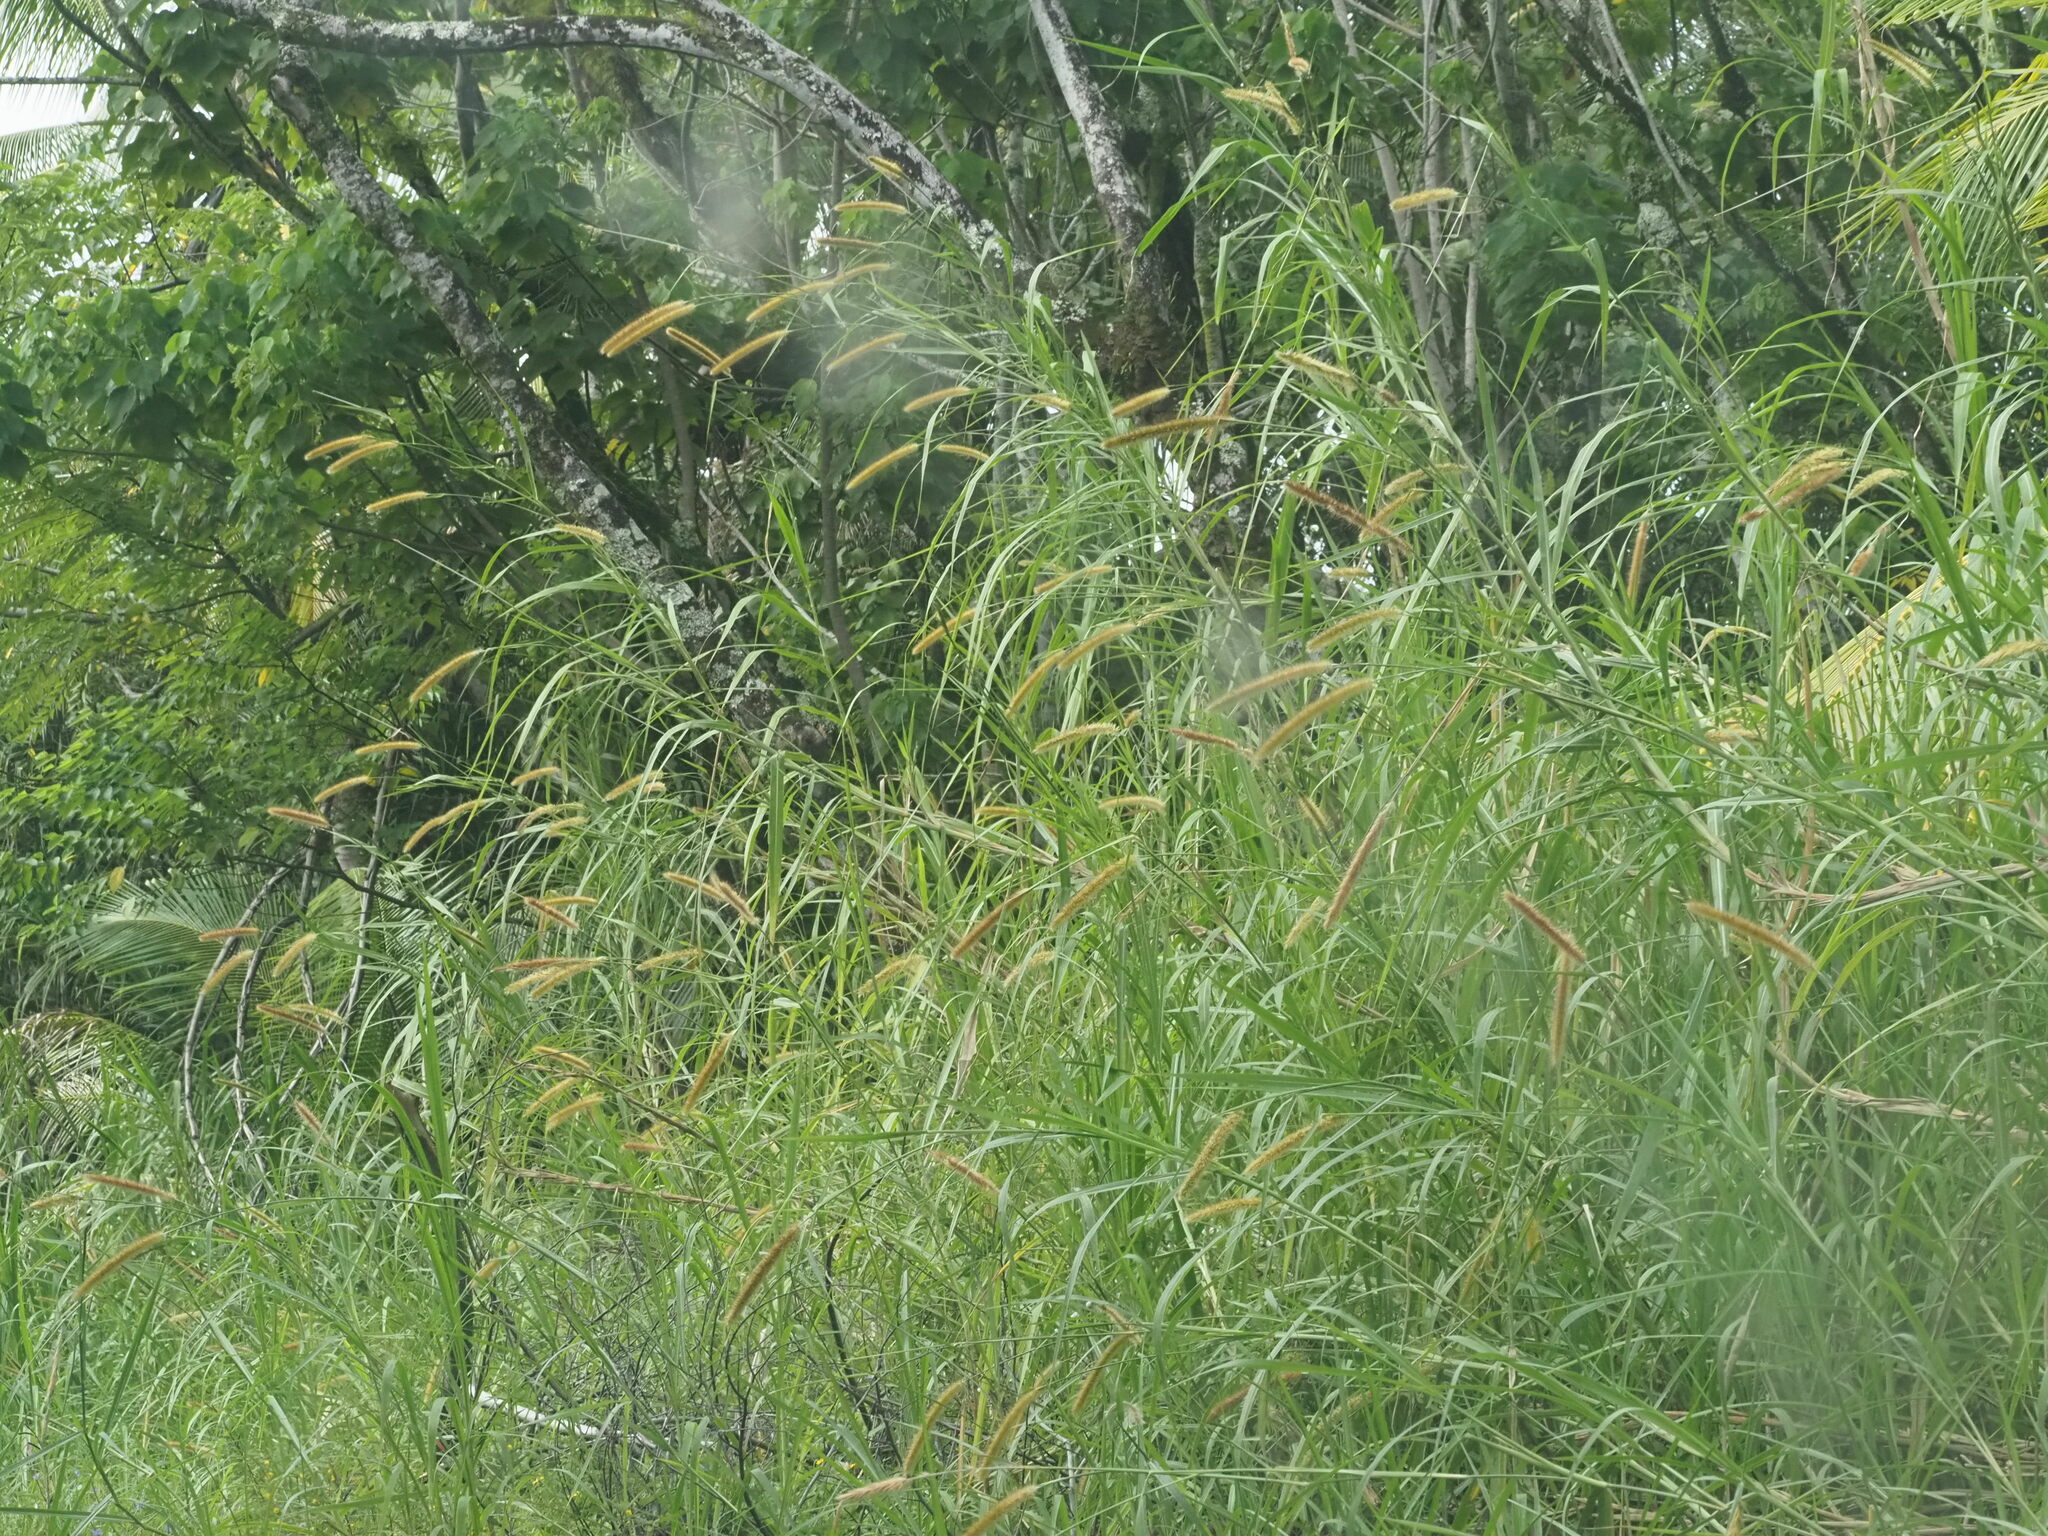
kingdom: Plantae
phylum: Tracheophyta
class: Liliopsida
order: Poales
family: Poaceae
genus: Cenchrus
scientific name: Cenchrus purpureus
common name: Elephant grass
